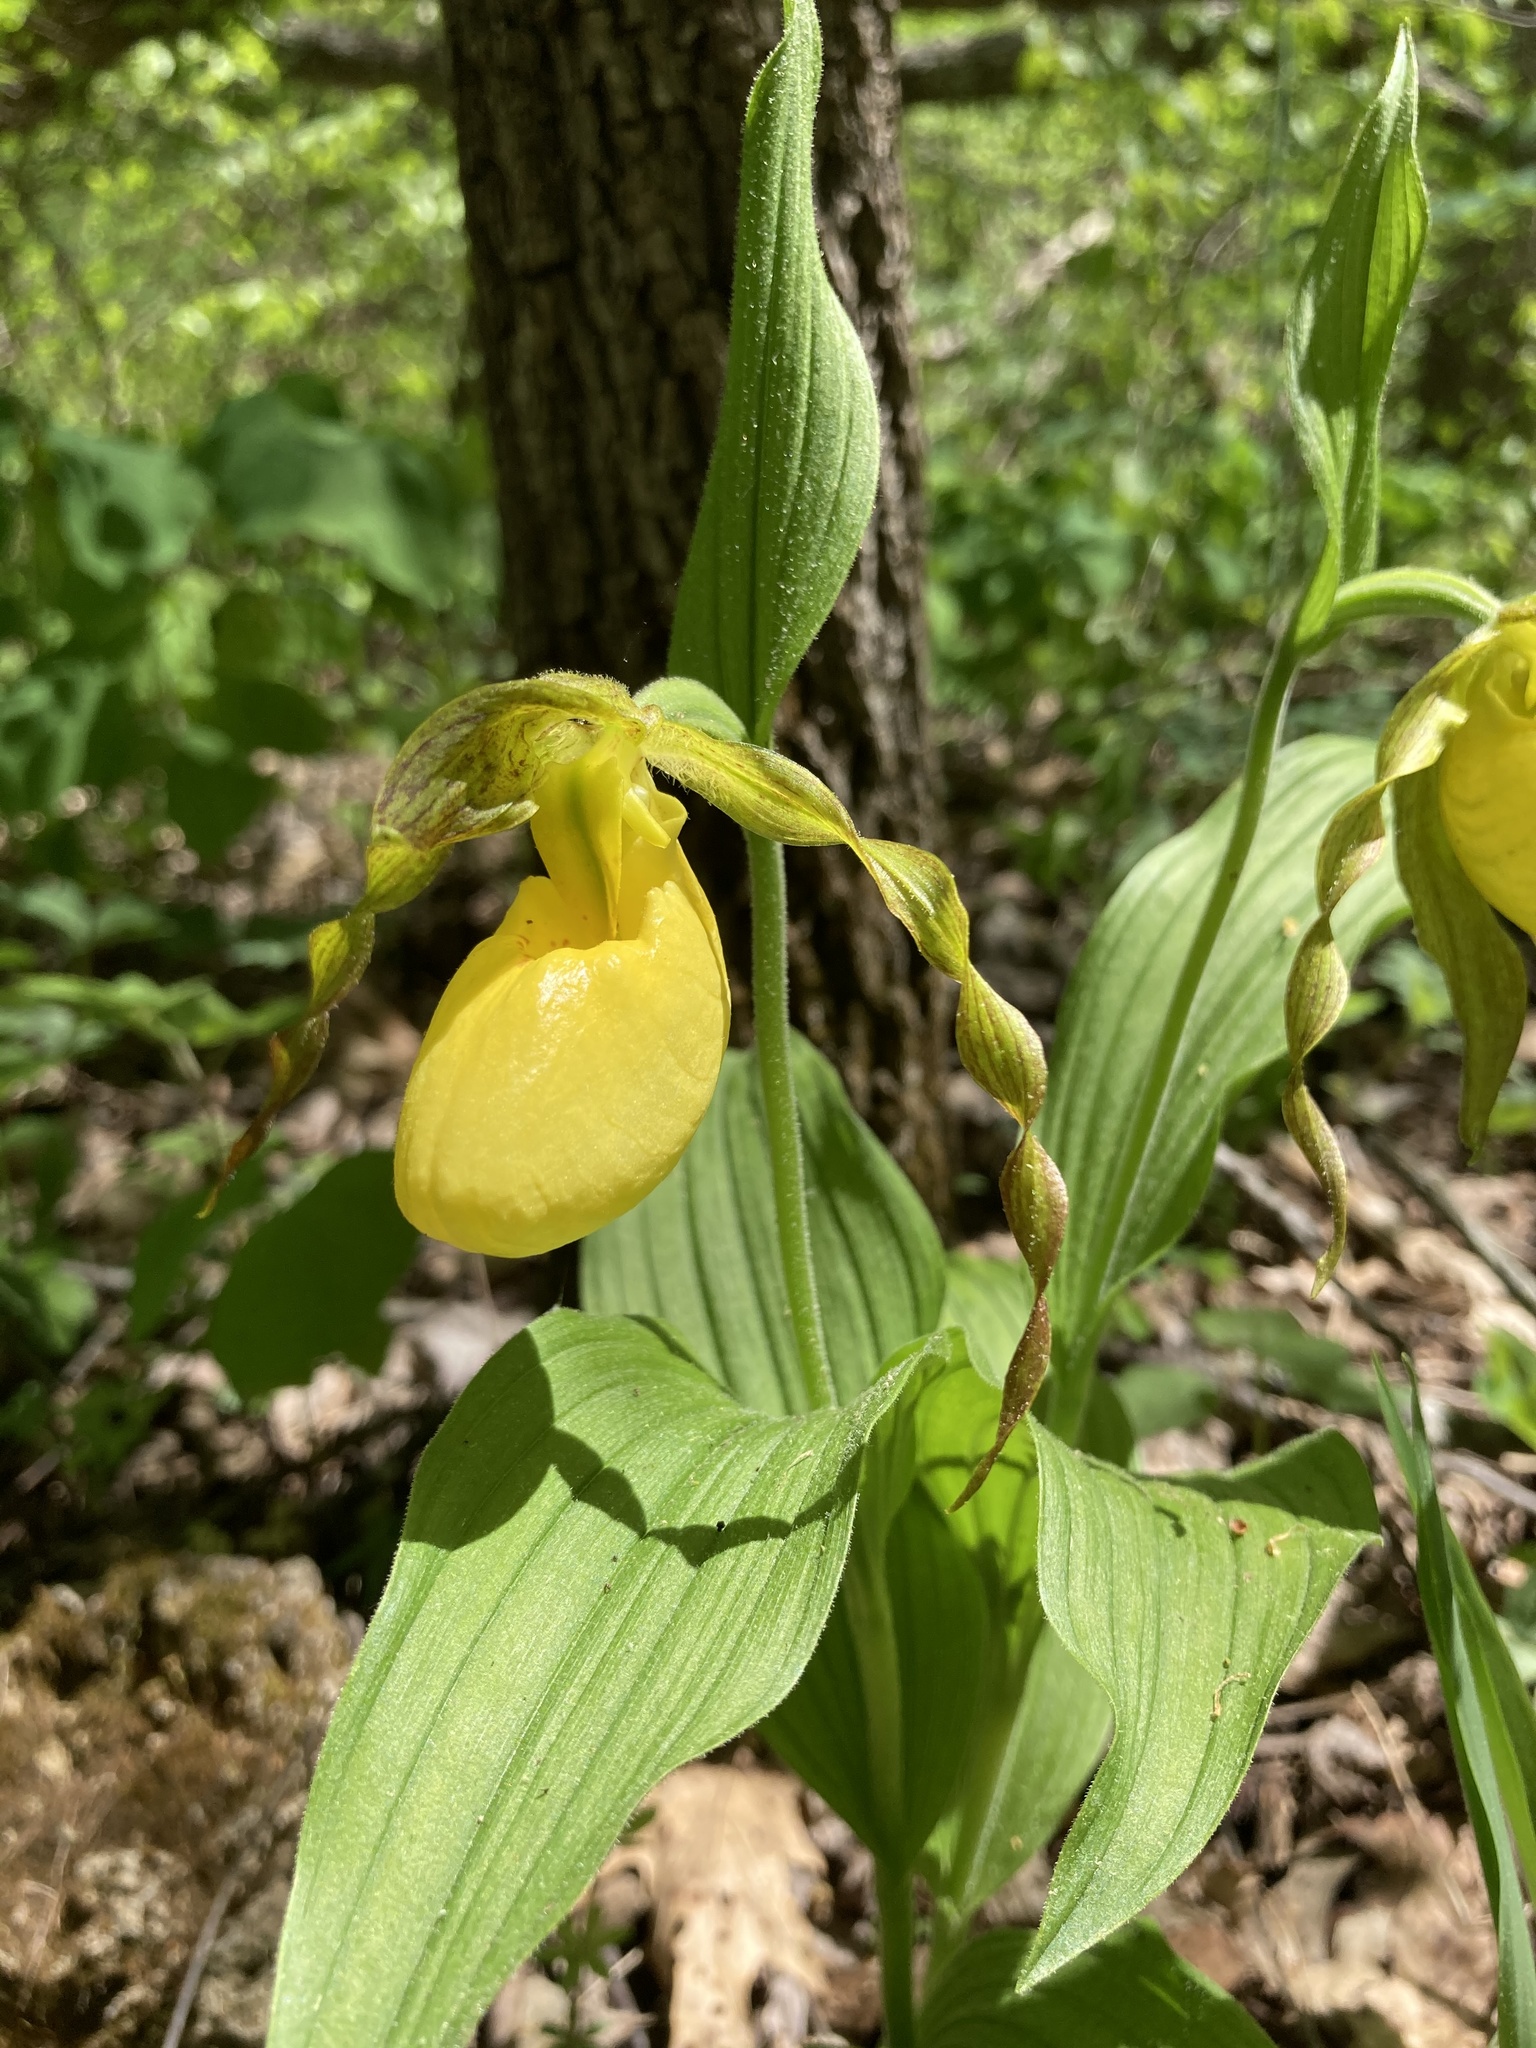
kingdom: Plantae
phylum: Tracheophyta
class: Liliopsida
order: Asparagales
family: Orchidaceae
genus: Cypripedium
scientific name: Cypripedium parviflorum
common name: American yellow lady's-slipper
